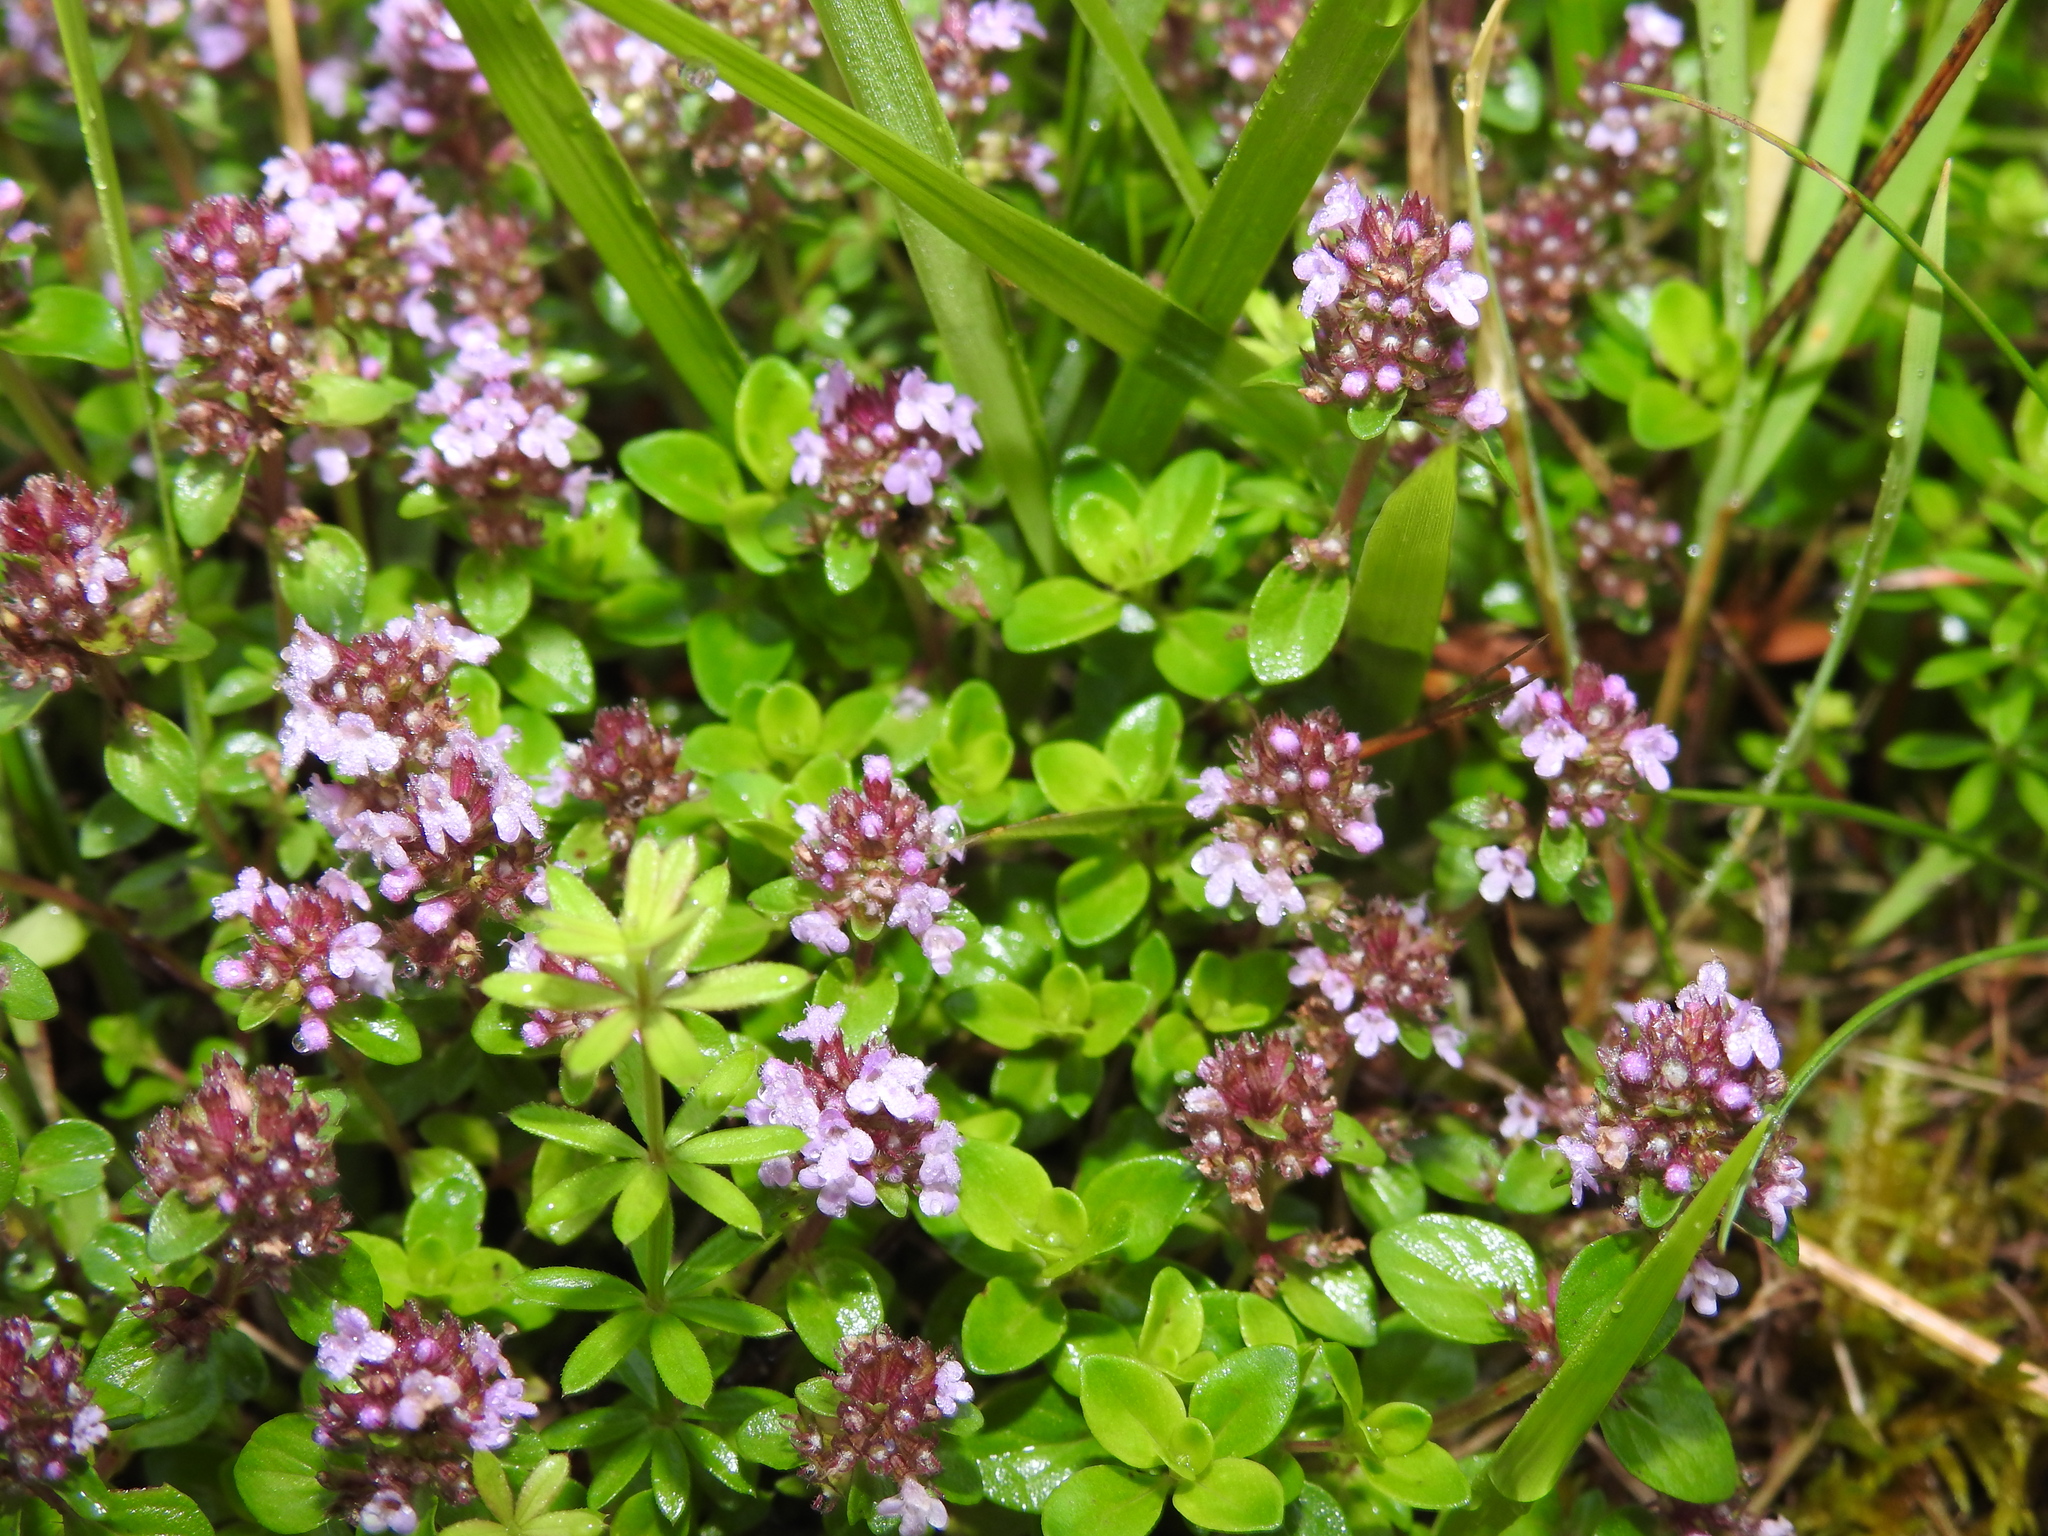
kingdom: Plantae
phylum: Tracheophyta
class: Magnoliopsida
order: Lamiales
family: Lamiaceae
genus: Thymus
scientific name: Thymus pulegioides
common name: Large thyme
